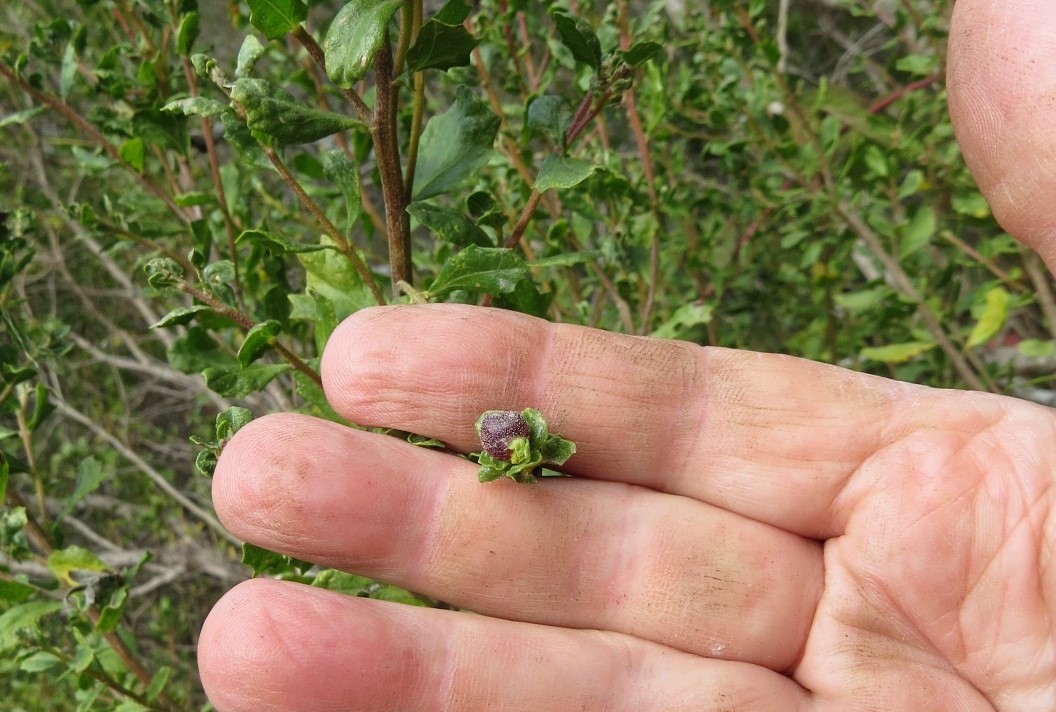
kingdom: Animalia
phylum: Arthropoda
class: Insecta
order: Diptera
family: Cecidomyiidae
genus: Rhopalomyia
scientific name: Rhopalomyia californica
